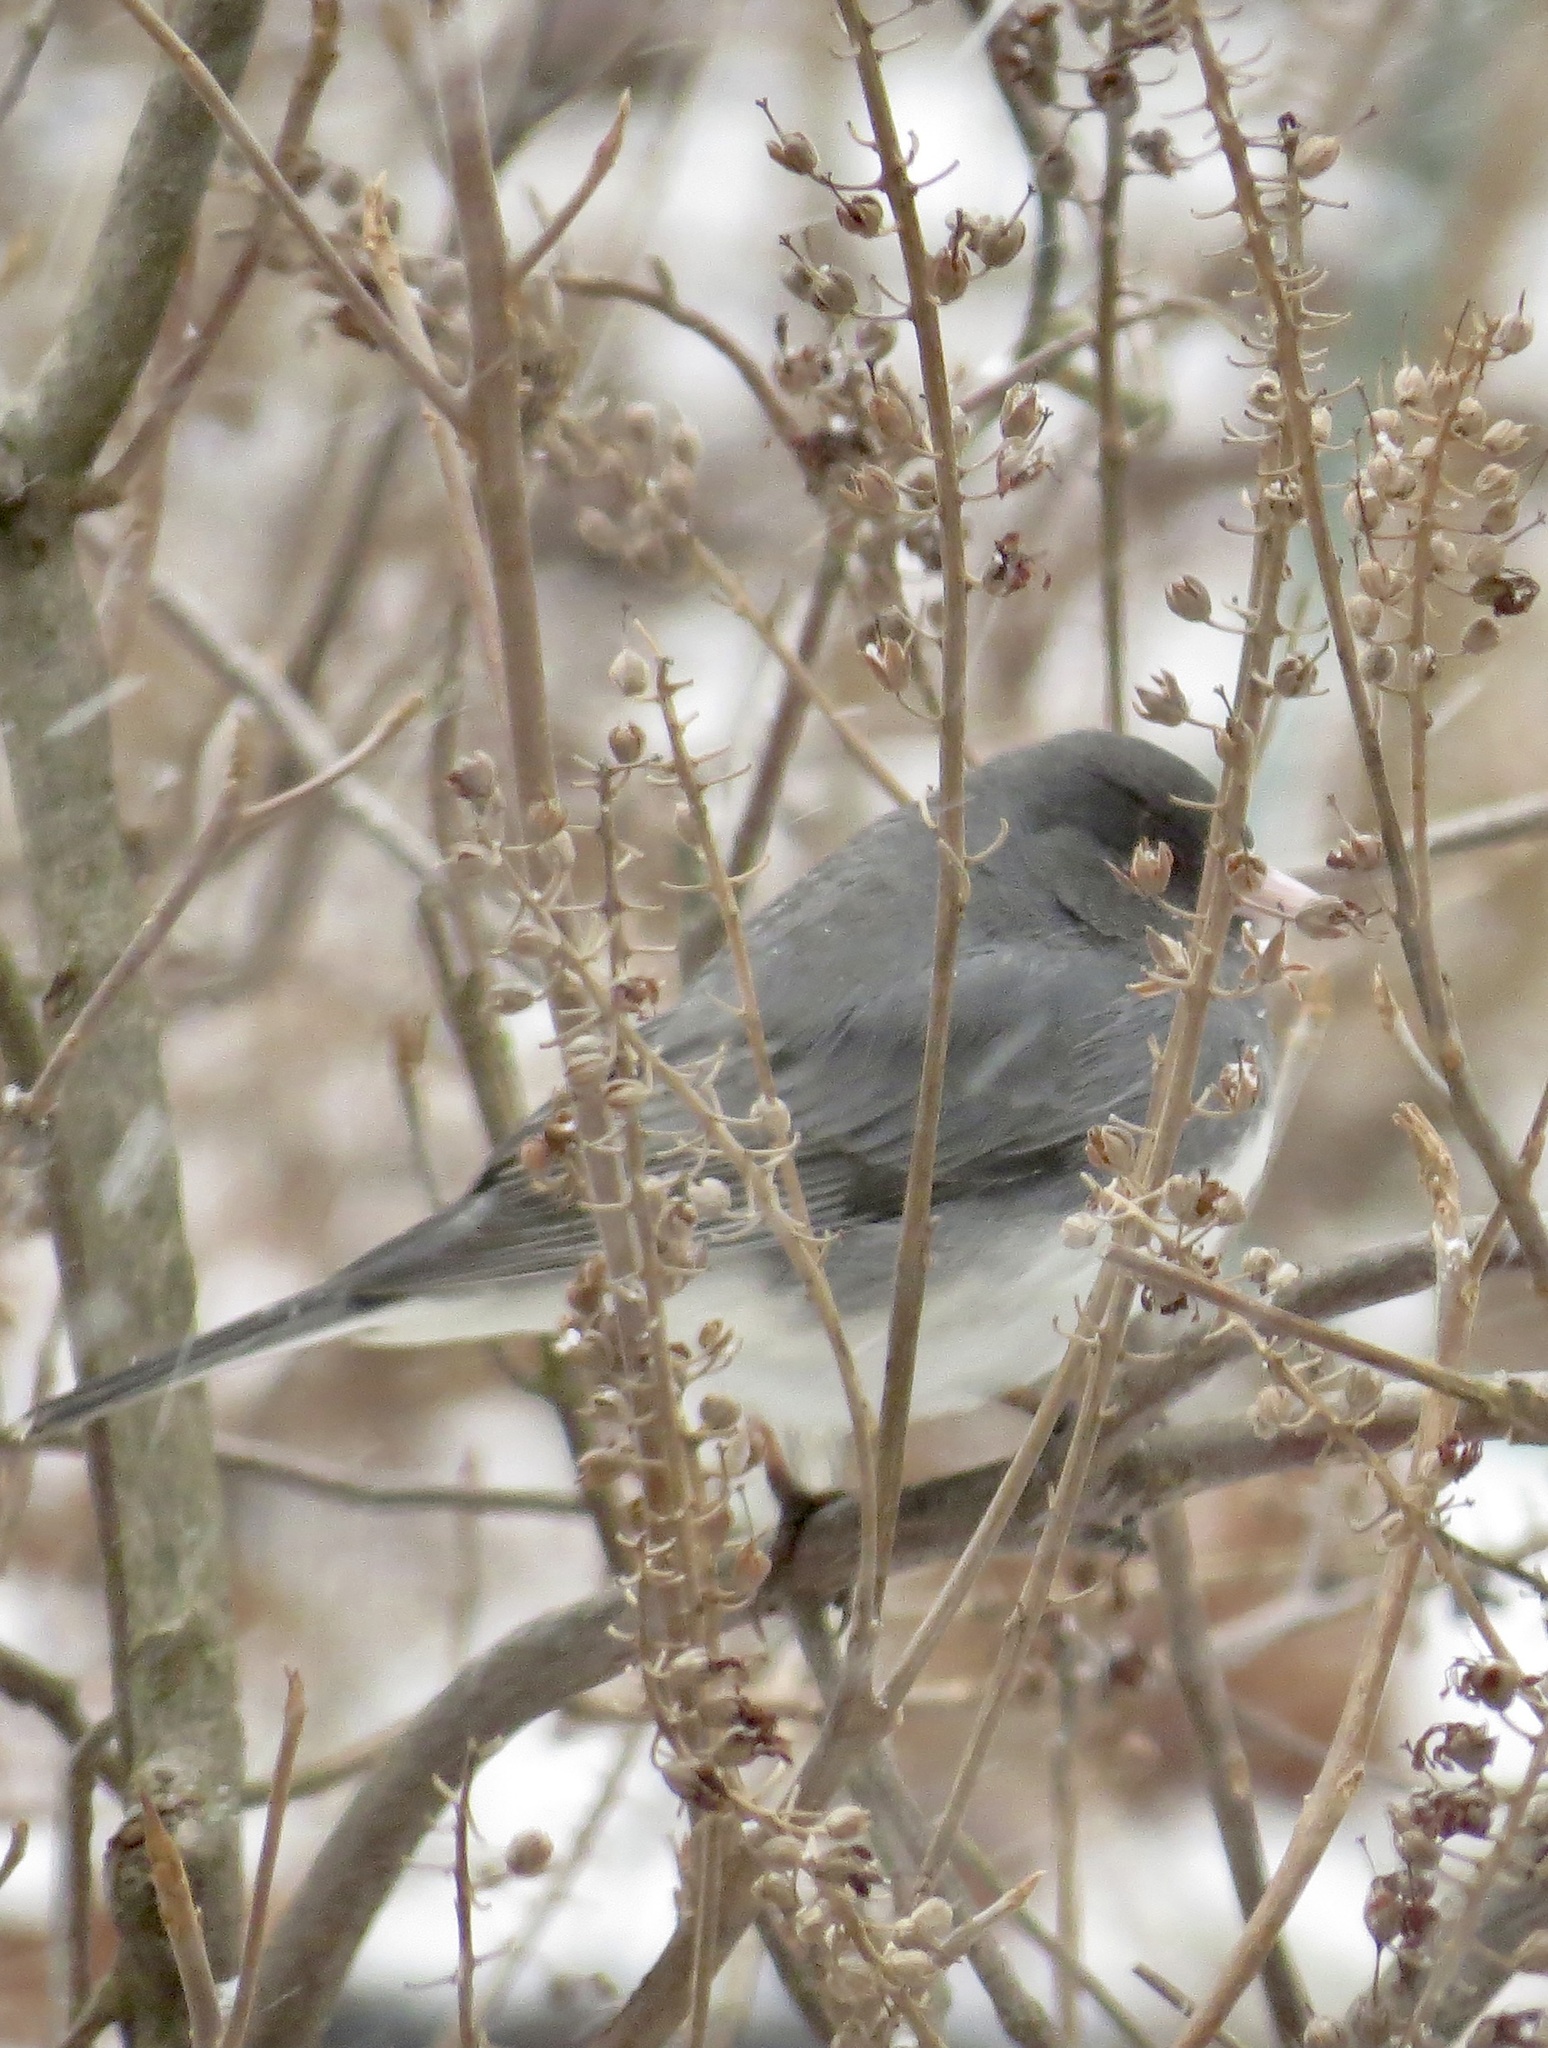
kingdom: Animalia
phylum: Chordata
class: Aves
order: Passeriformes
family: Passerellidae
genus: Junco
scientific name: Junco hyemalis
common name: Dark-eyed junco
